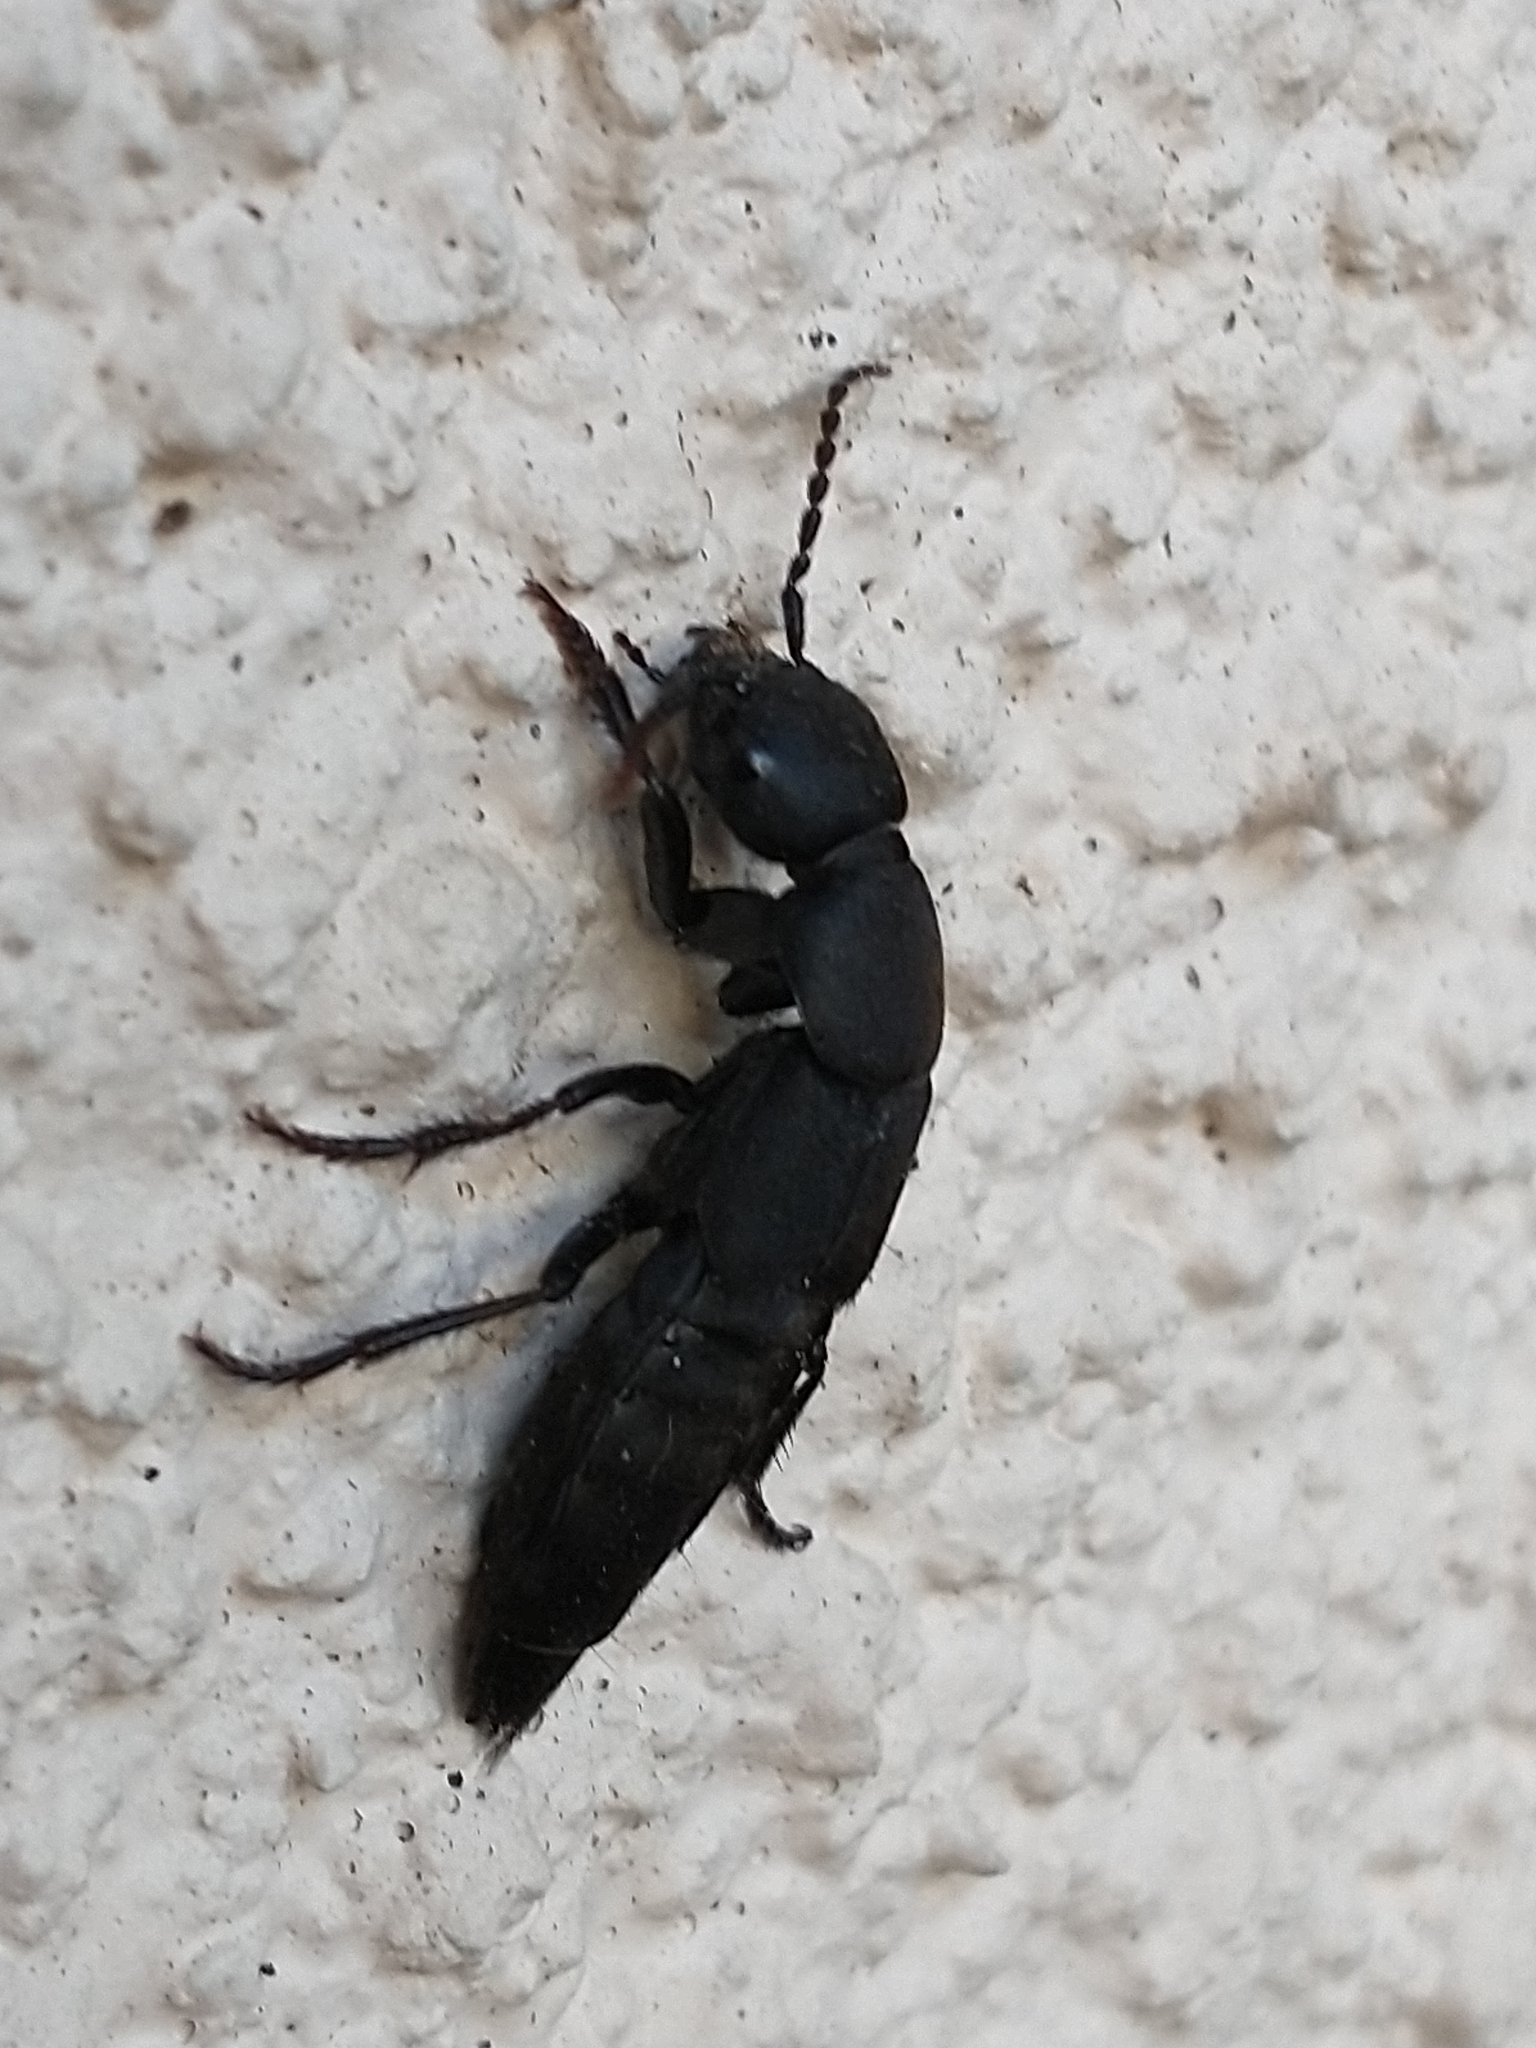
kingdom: Animalia
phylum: Arthropoda
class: Insecta
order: Coleoptera
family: Staphylinidae
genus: Ocypus
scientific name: Ocypus olens
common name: Devil's coach-horse
